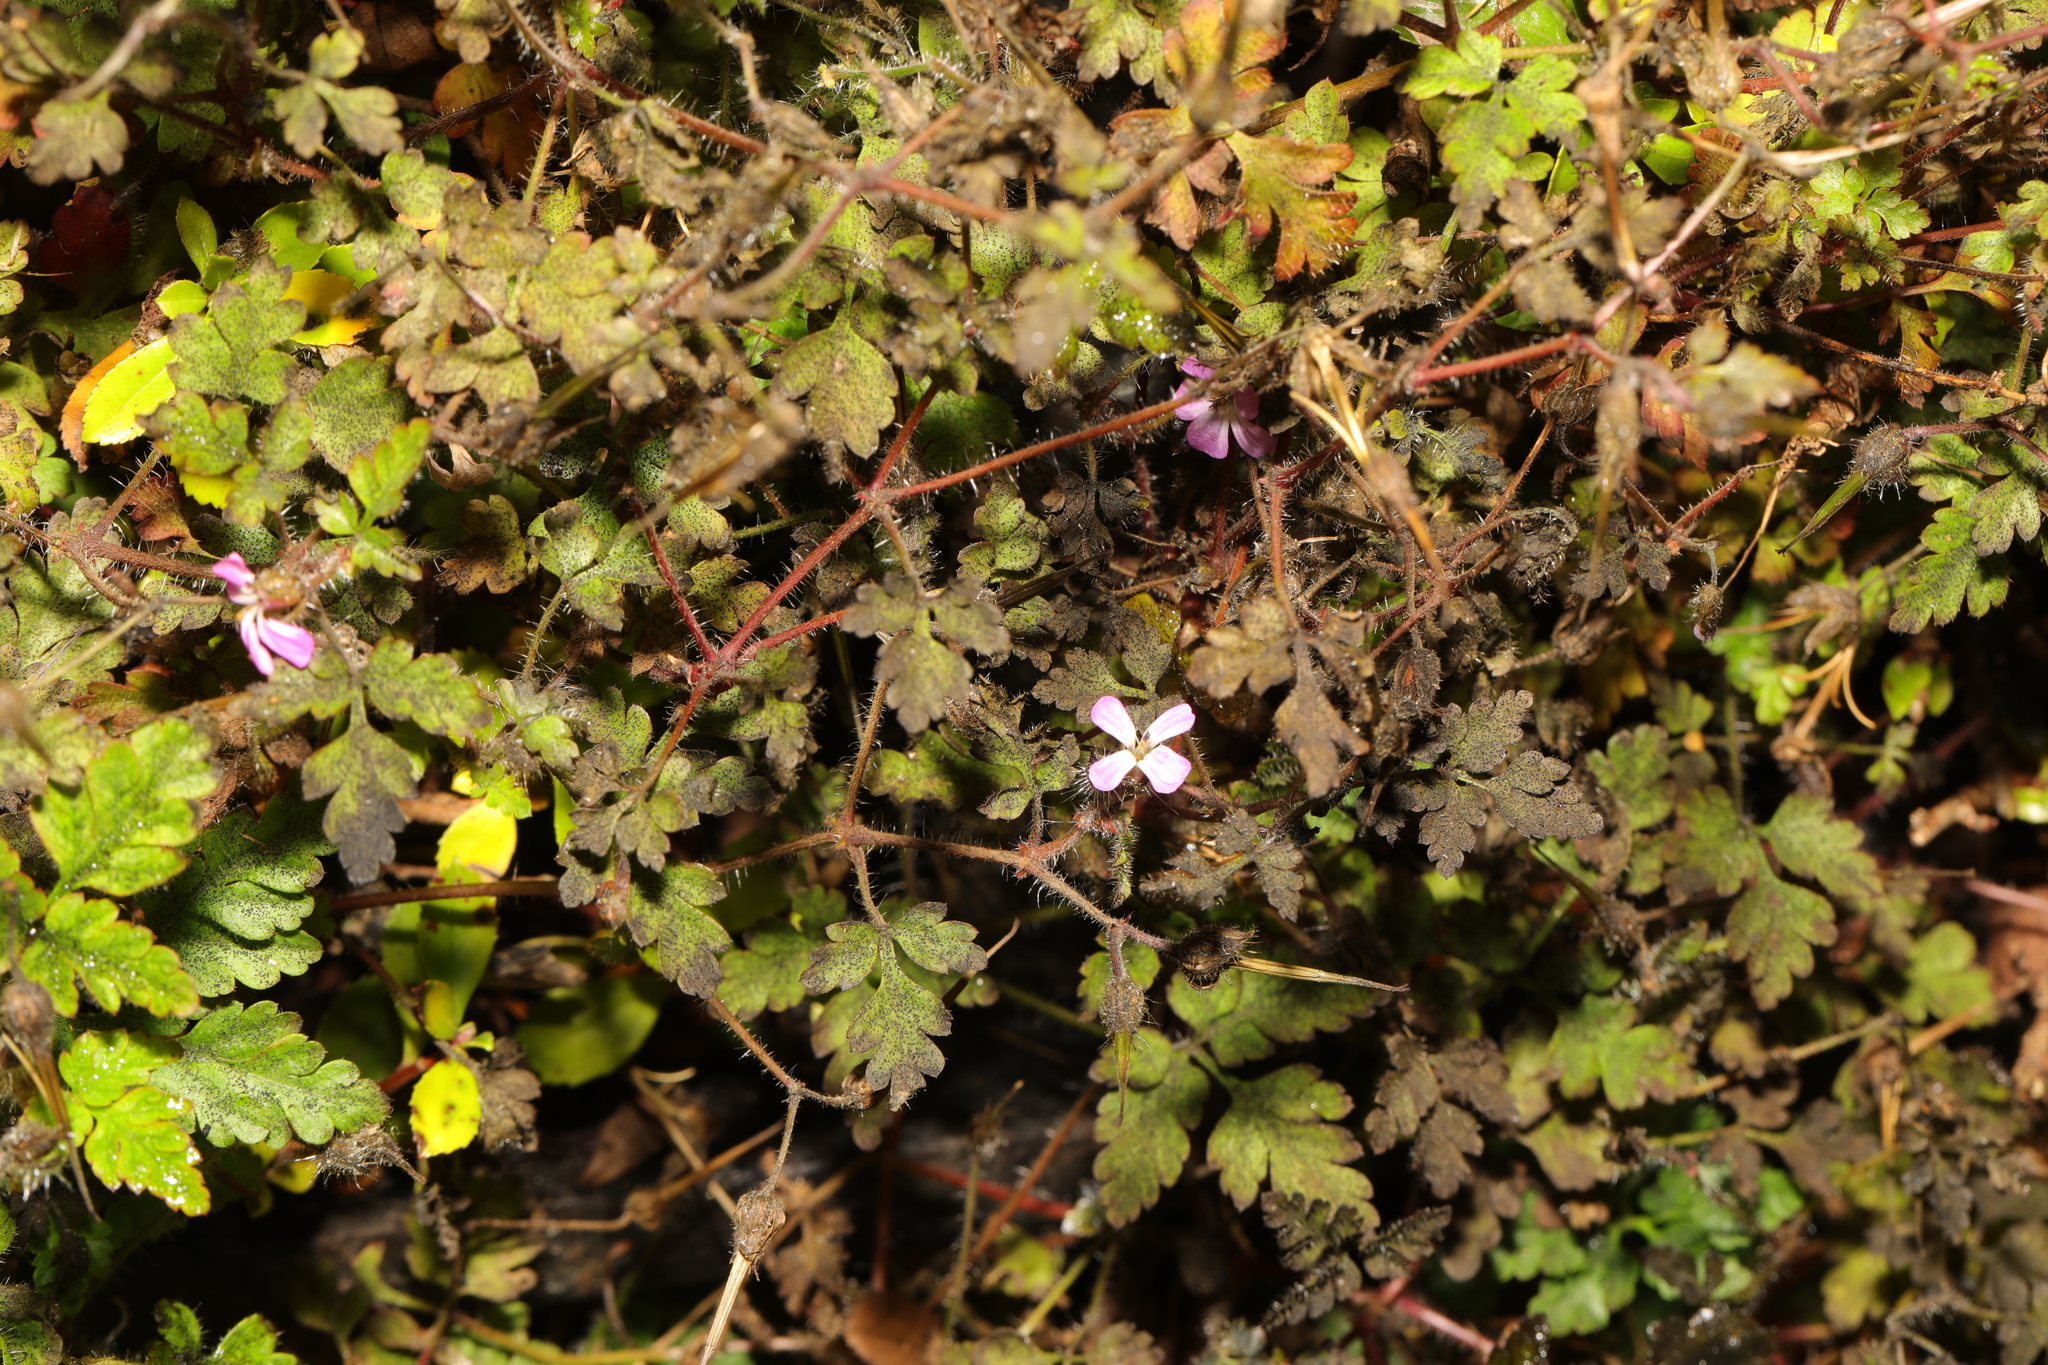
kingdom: Plantae
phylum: Tracheophyta
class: Magnoliopsida
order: Geraniales
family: Geraniaceae
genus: Geranium
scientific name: Geranium robertianum
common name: Herb-robert
